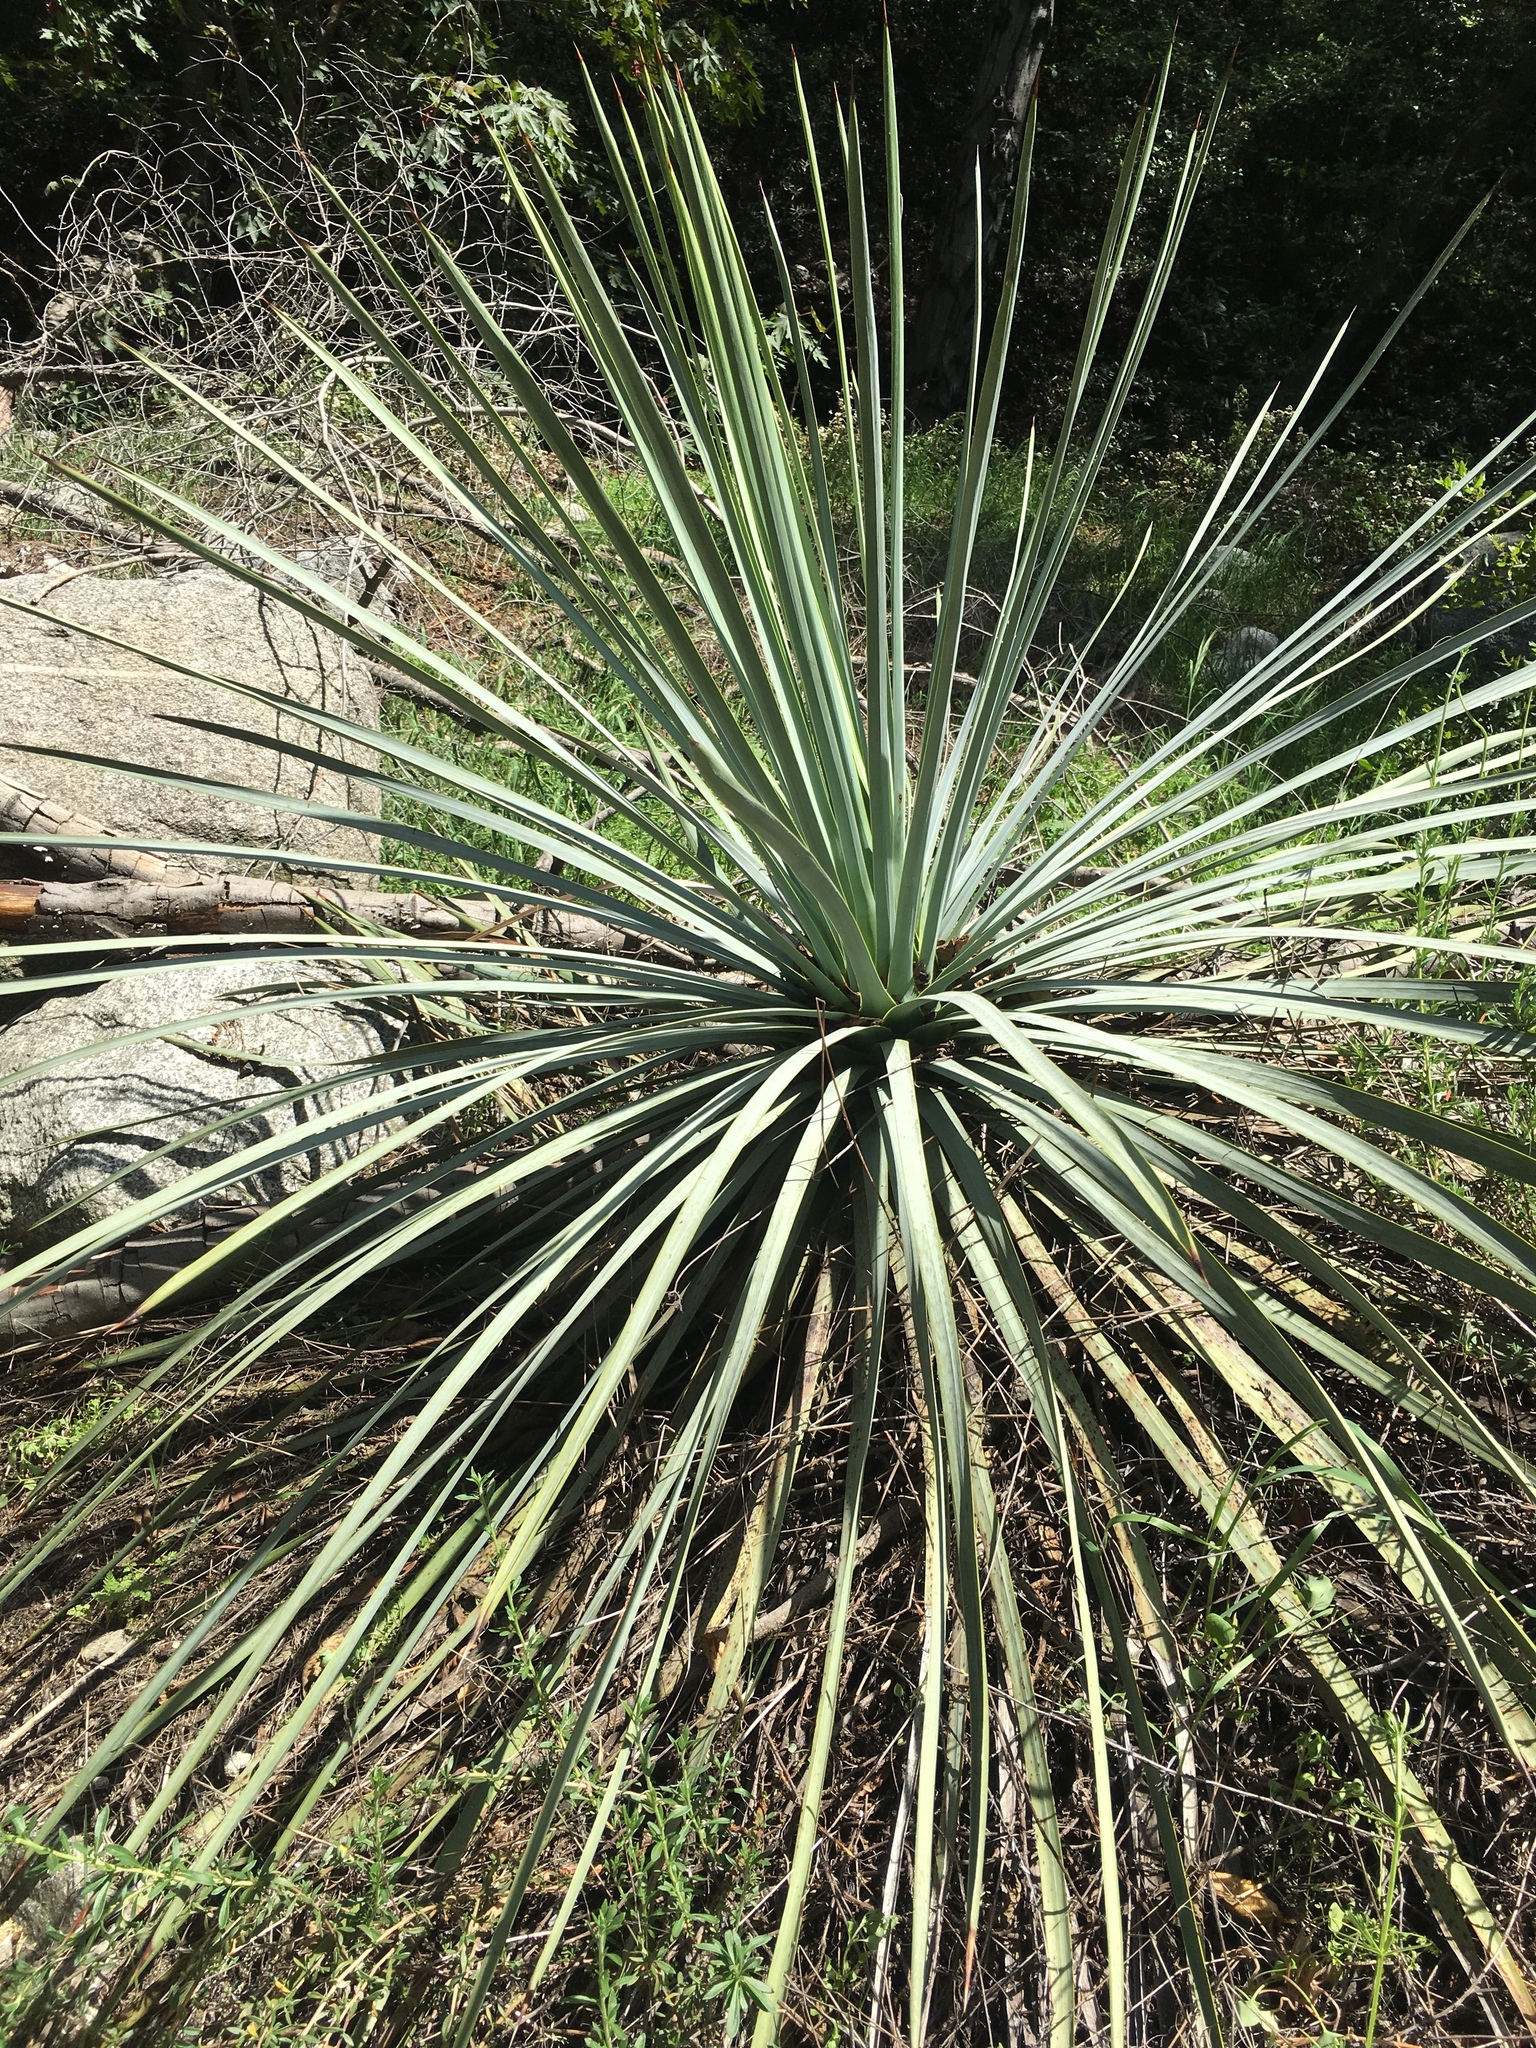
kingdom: Plantae
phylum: Tracheophyta
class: Liliopsida
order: Asparagales
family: Asparagaceae
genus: Hesperoyucca
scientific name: Hesperoyucca whipplei
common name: Our lord's-candle
